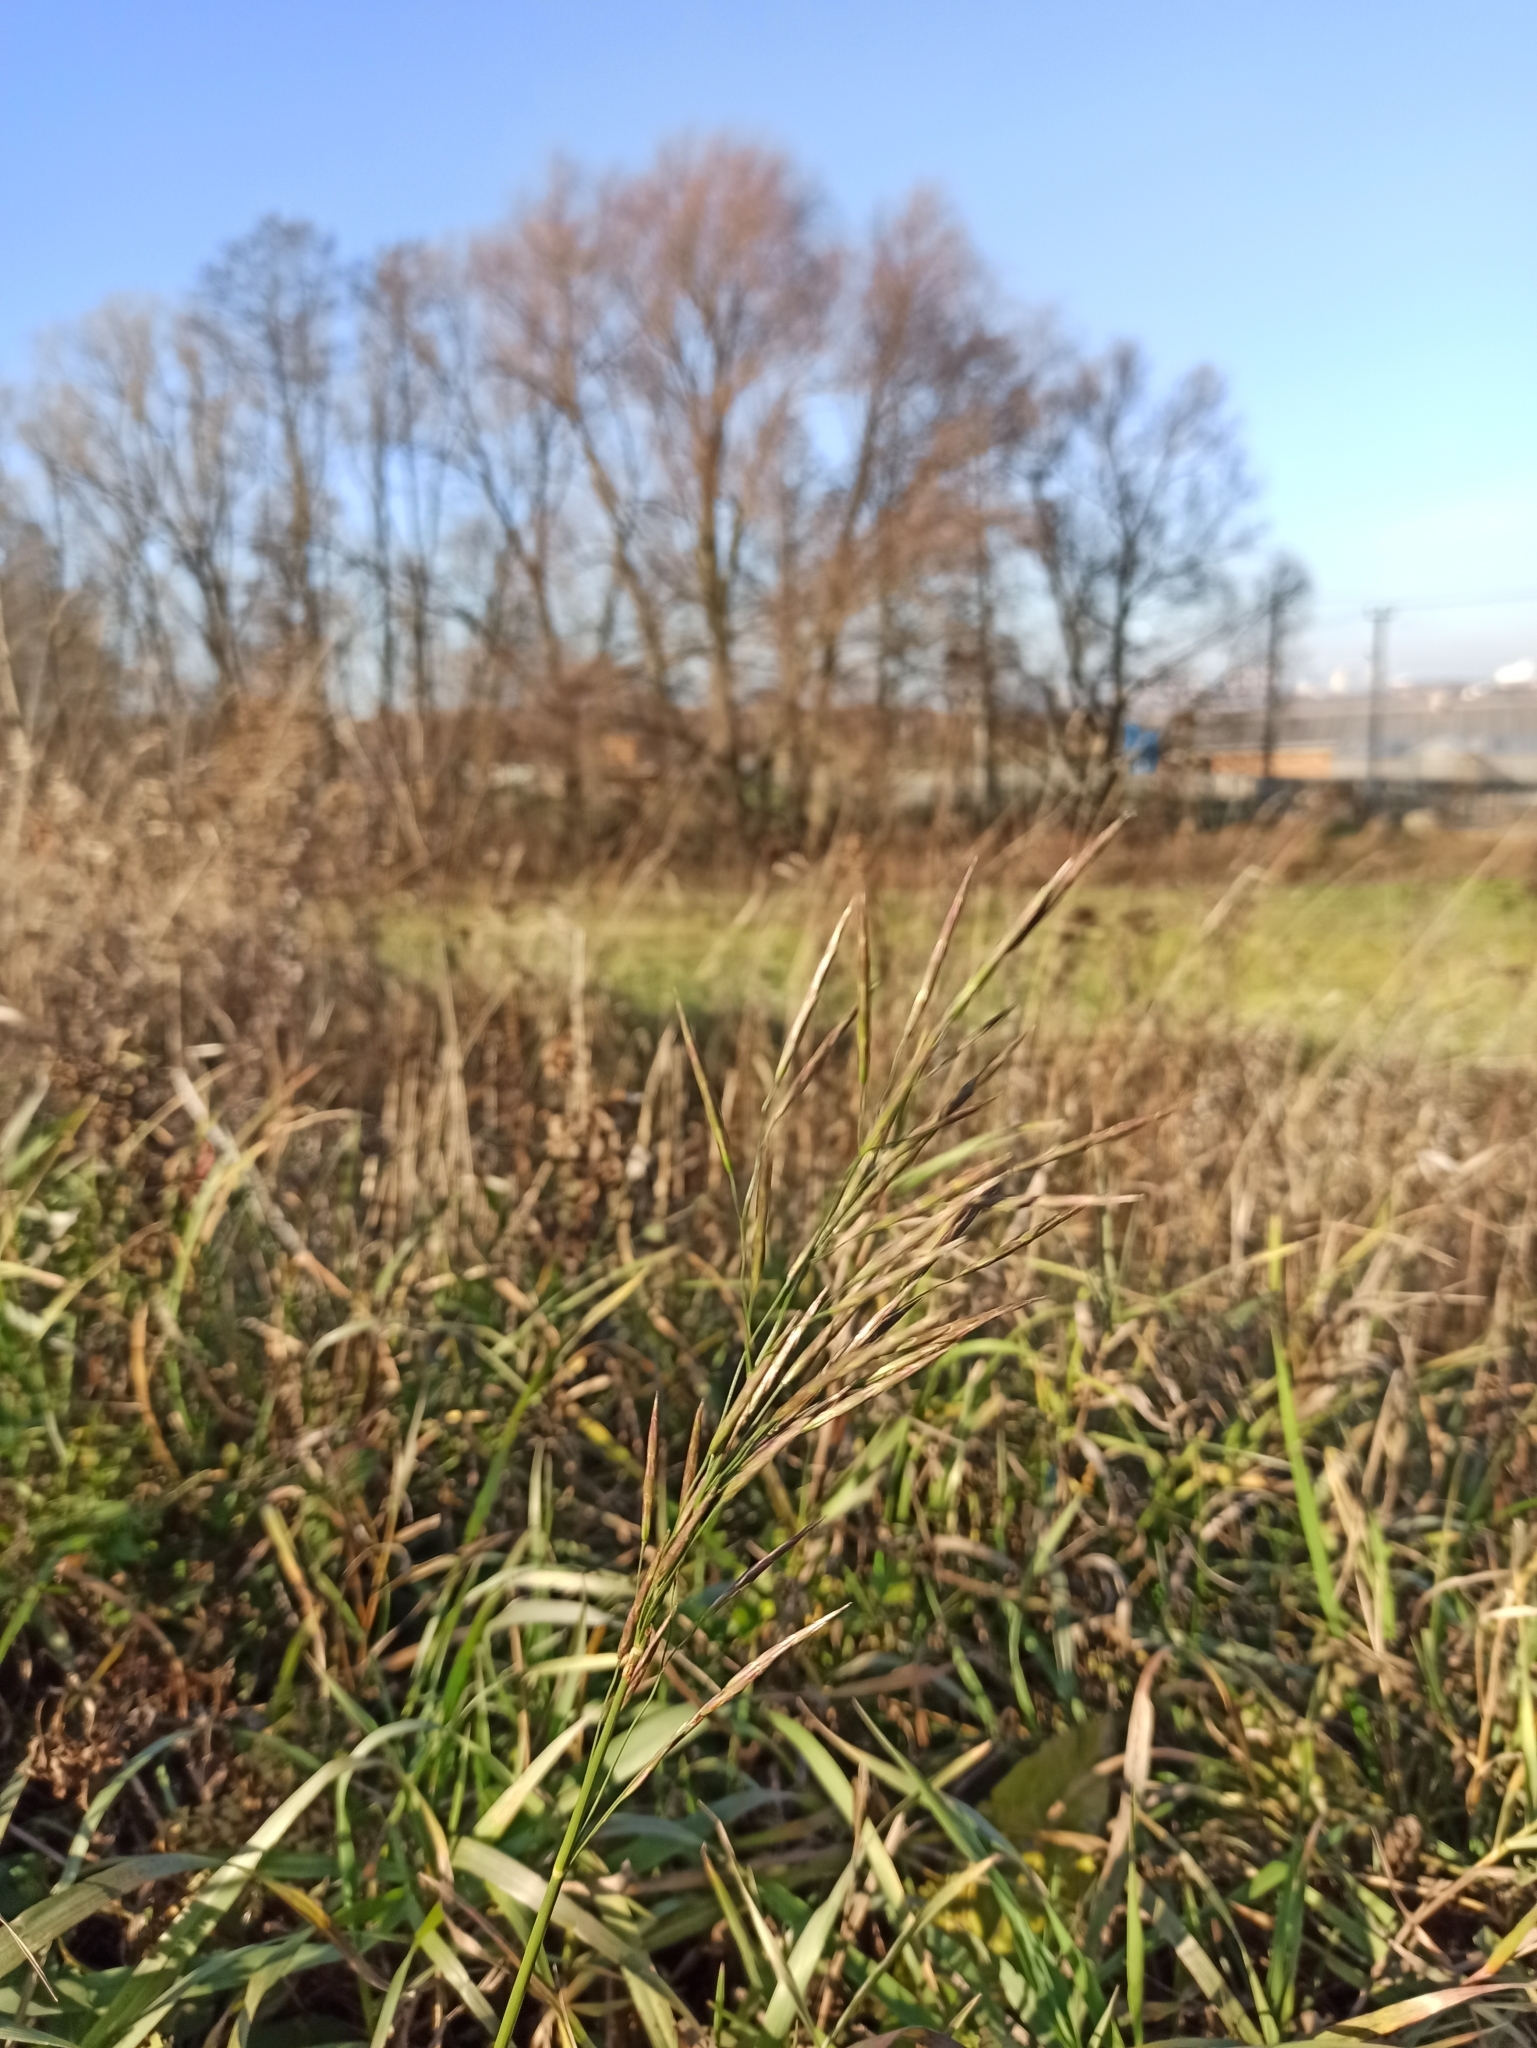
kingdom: Plantae
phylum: Tracheophyta
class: Liliopsida
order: Poales
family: Poaceae
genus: Bromus
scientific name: Bromus inermis
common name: Smooth brome
